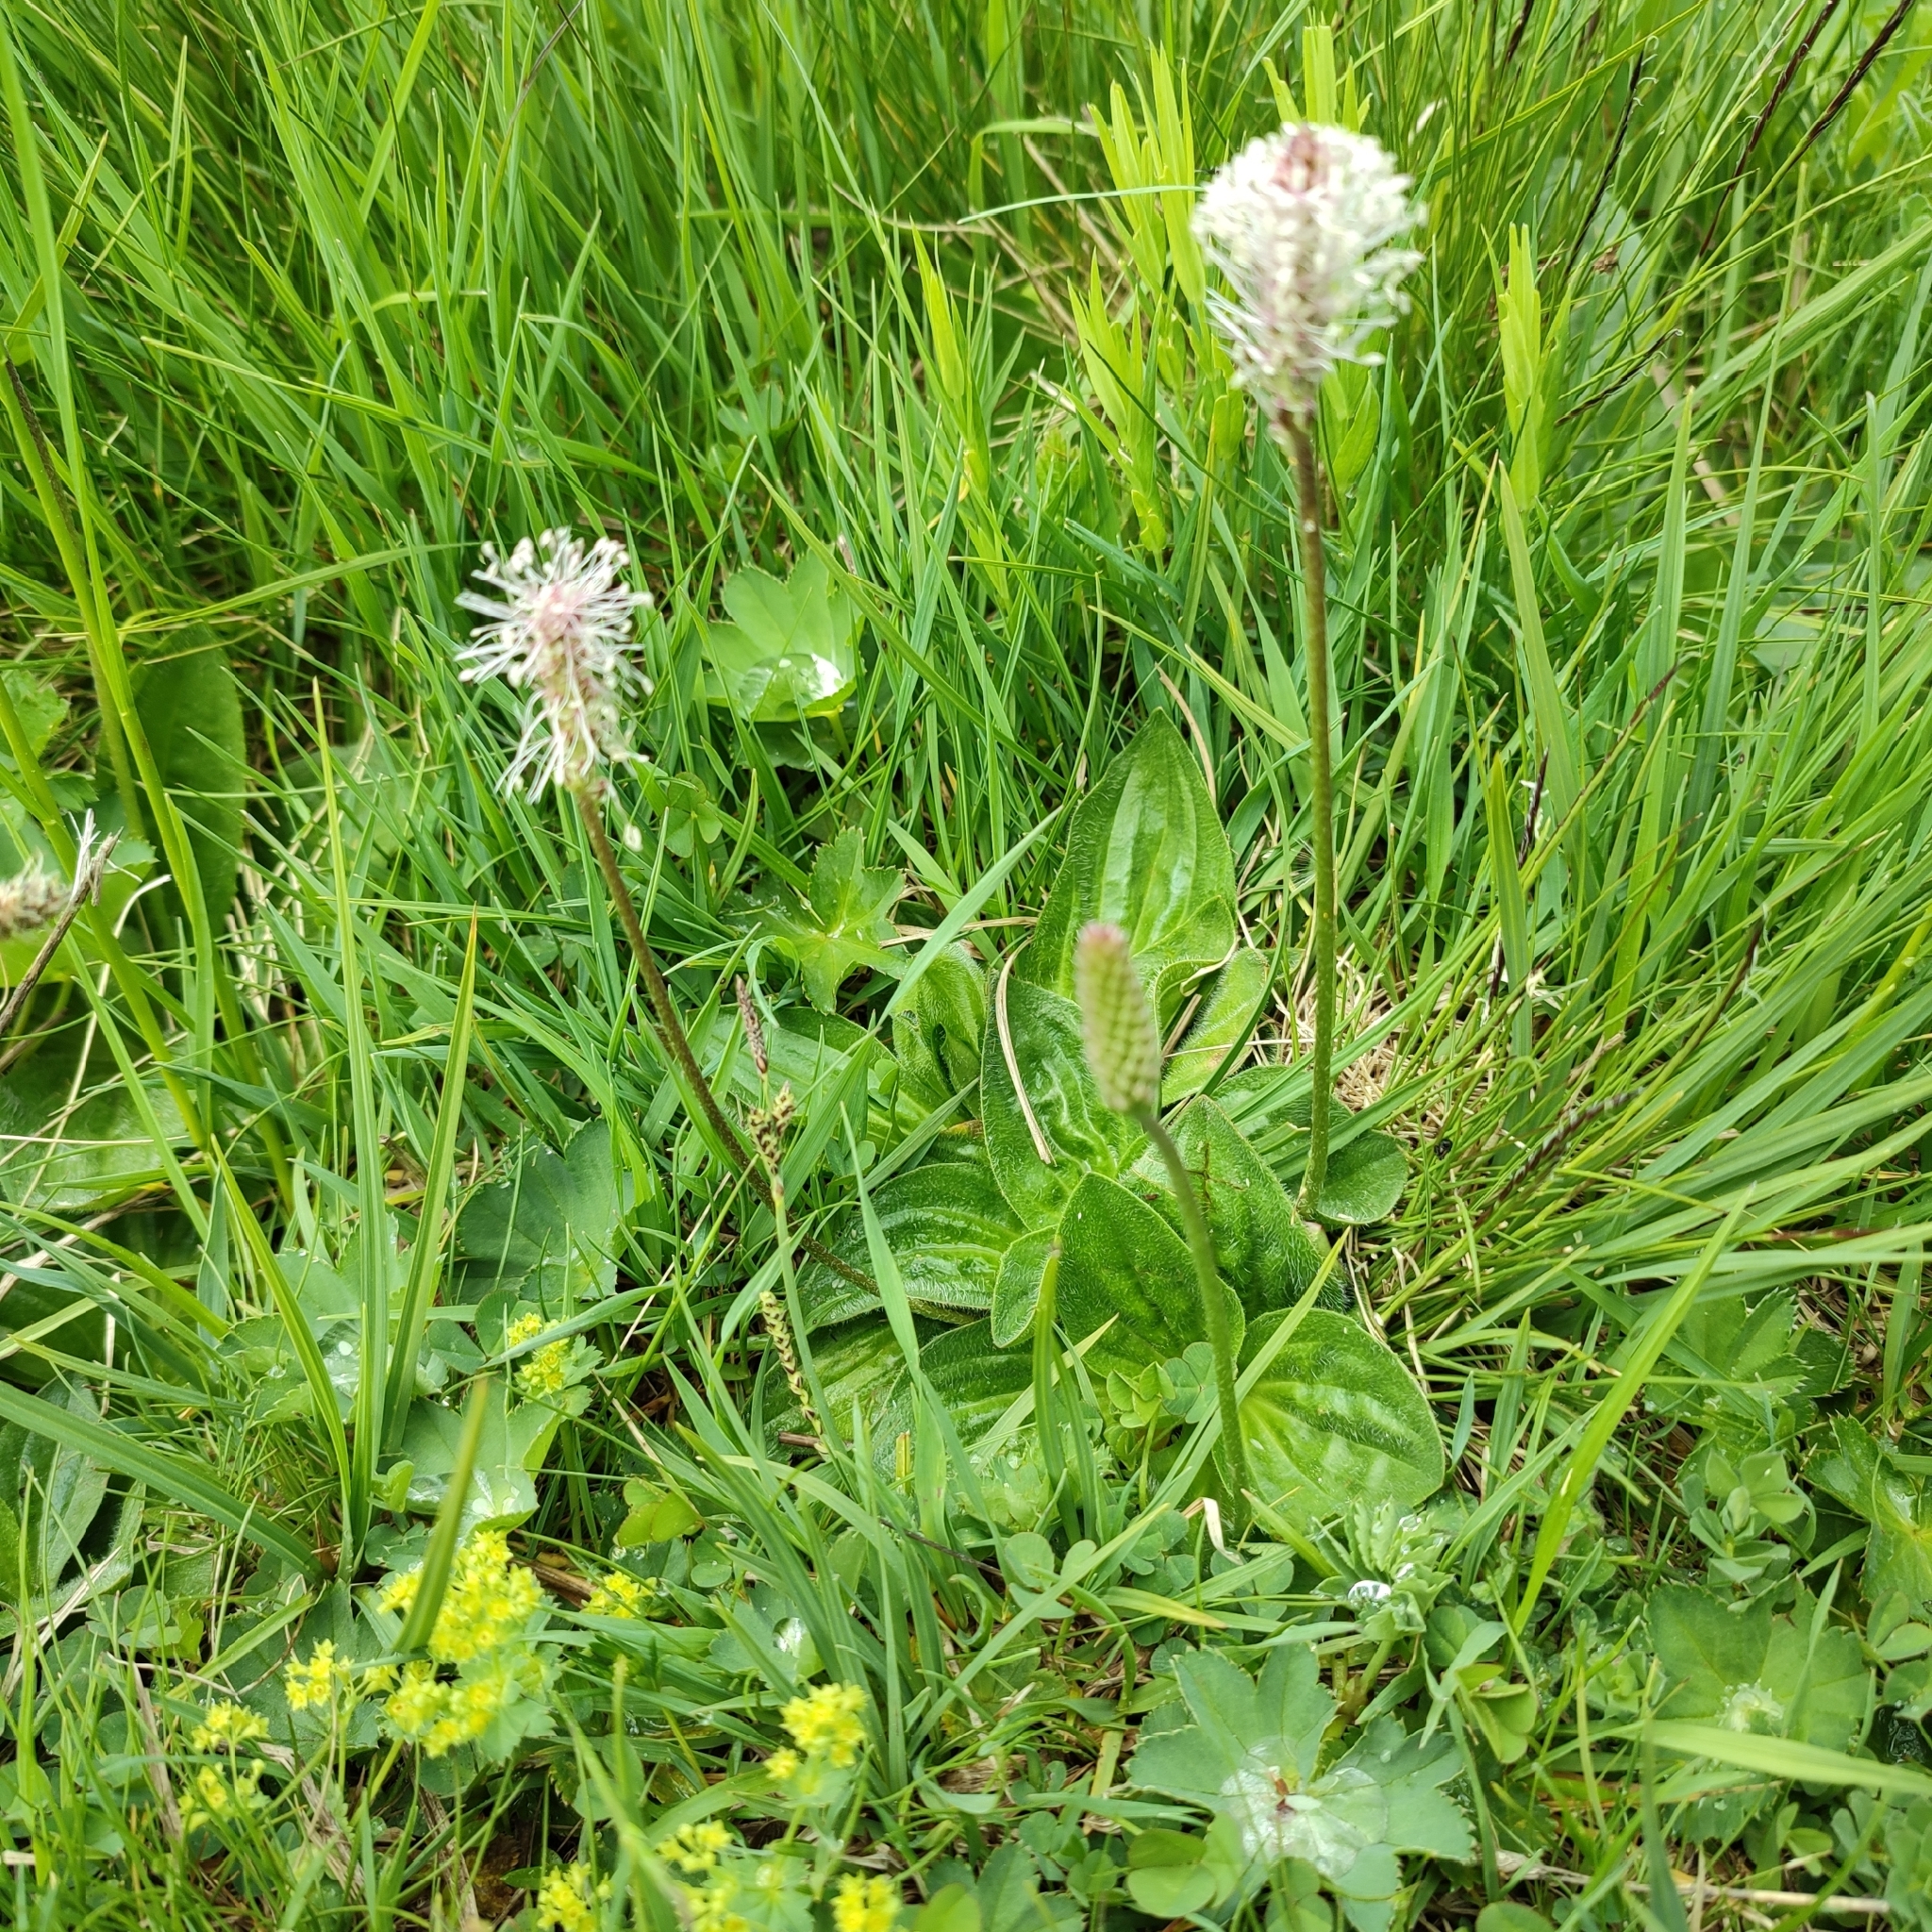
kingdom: Plantae
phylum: Tracheophyta
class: Magnoliopsida
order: Lamiales
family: Plantaginaceae
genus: Plantago
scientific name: Plantago media
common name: Hoary plantain
